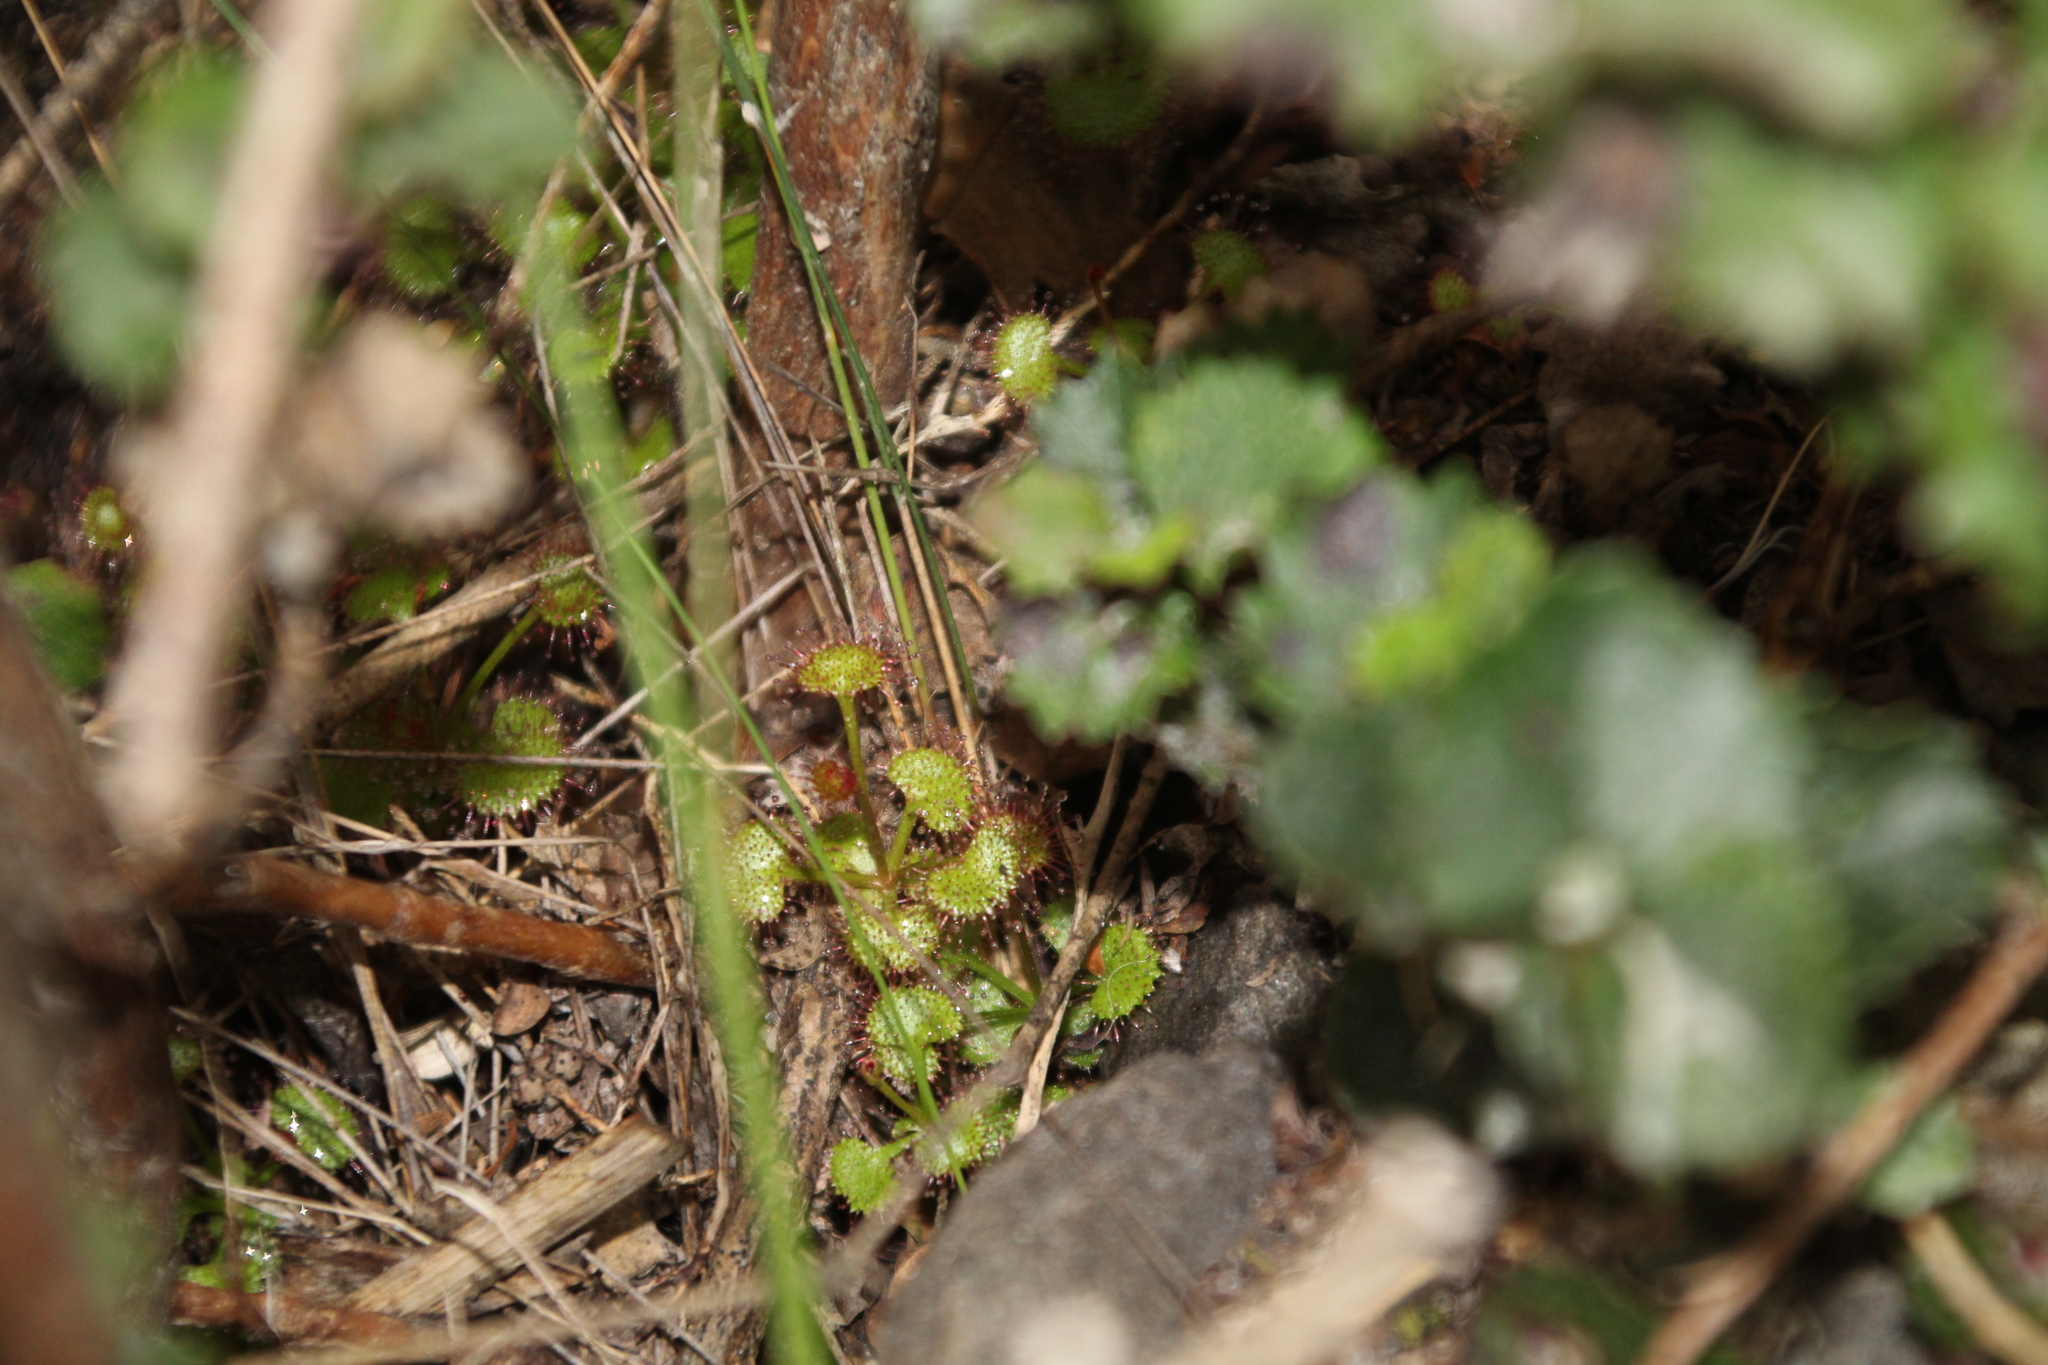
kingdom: Plantae
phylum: Tracheophyta
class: Magnoliopsida
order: Caryophyllales
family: Droseraceae
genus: Drosera
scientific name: Drosera monticola
